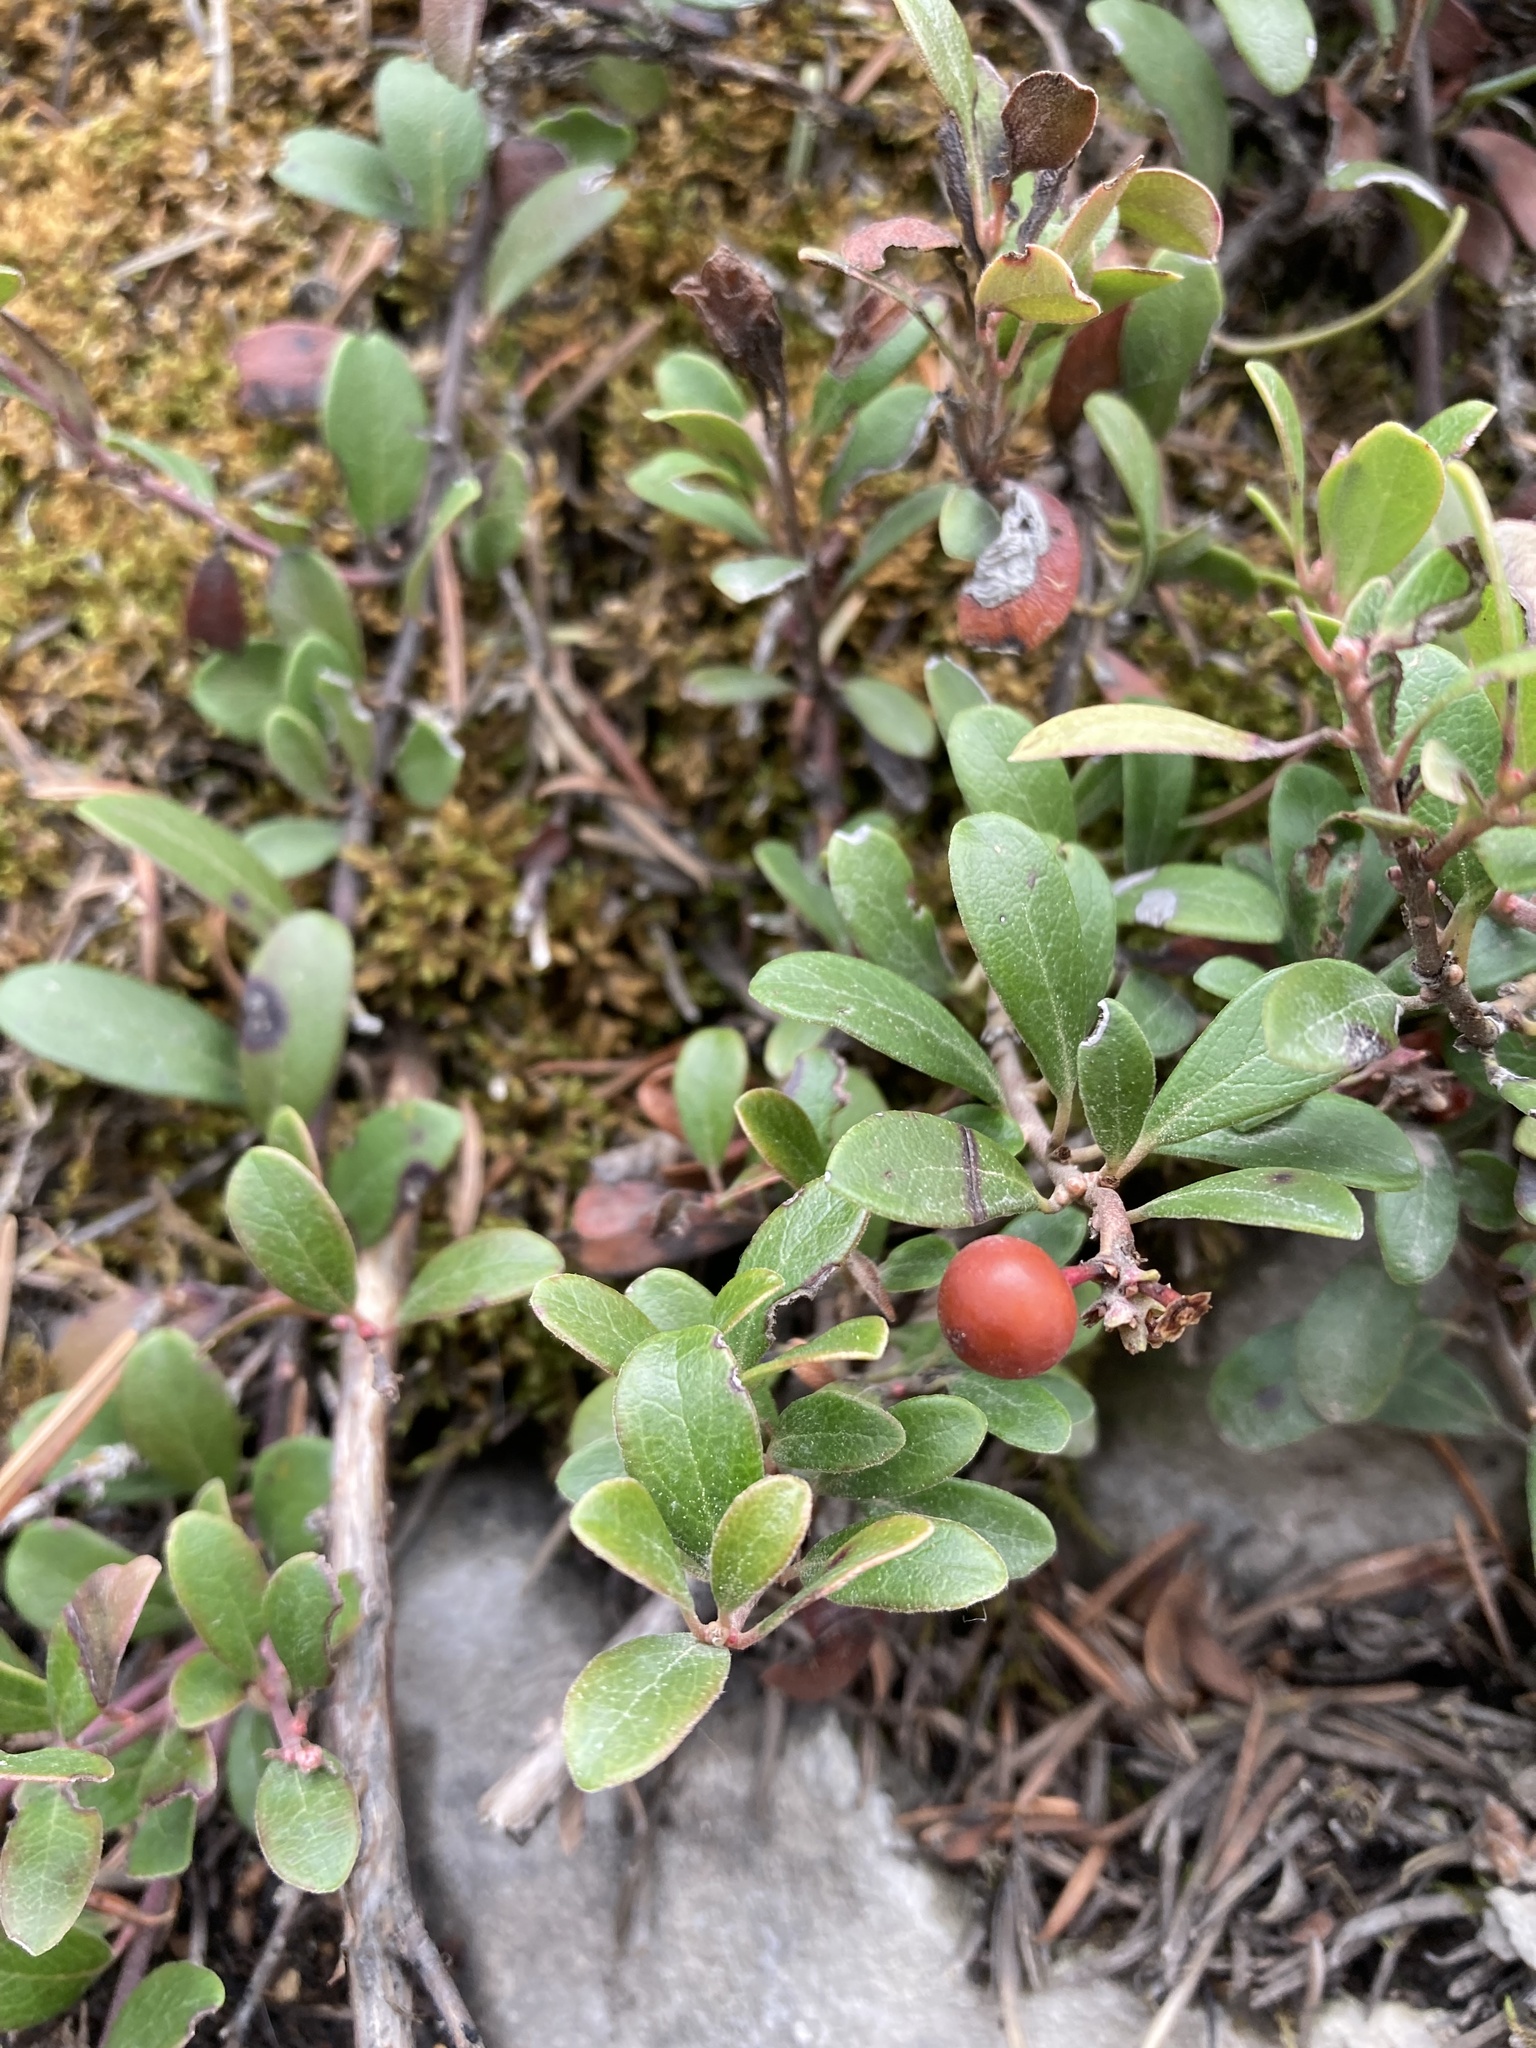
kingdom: Plantae
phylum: Tracheophyta
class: Magnoliopsida
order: Ericales
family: Ericaceae
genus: Arctostaphylos
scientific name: Arctostaphylos uva-ursi
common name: Bearberry
